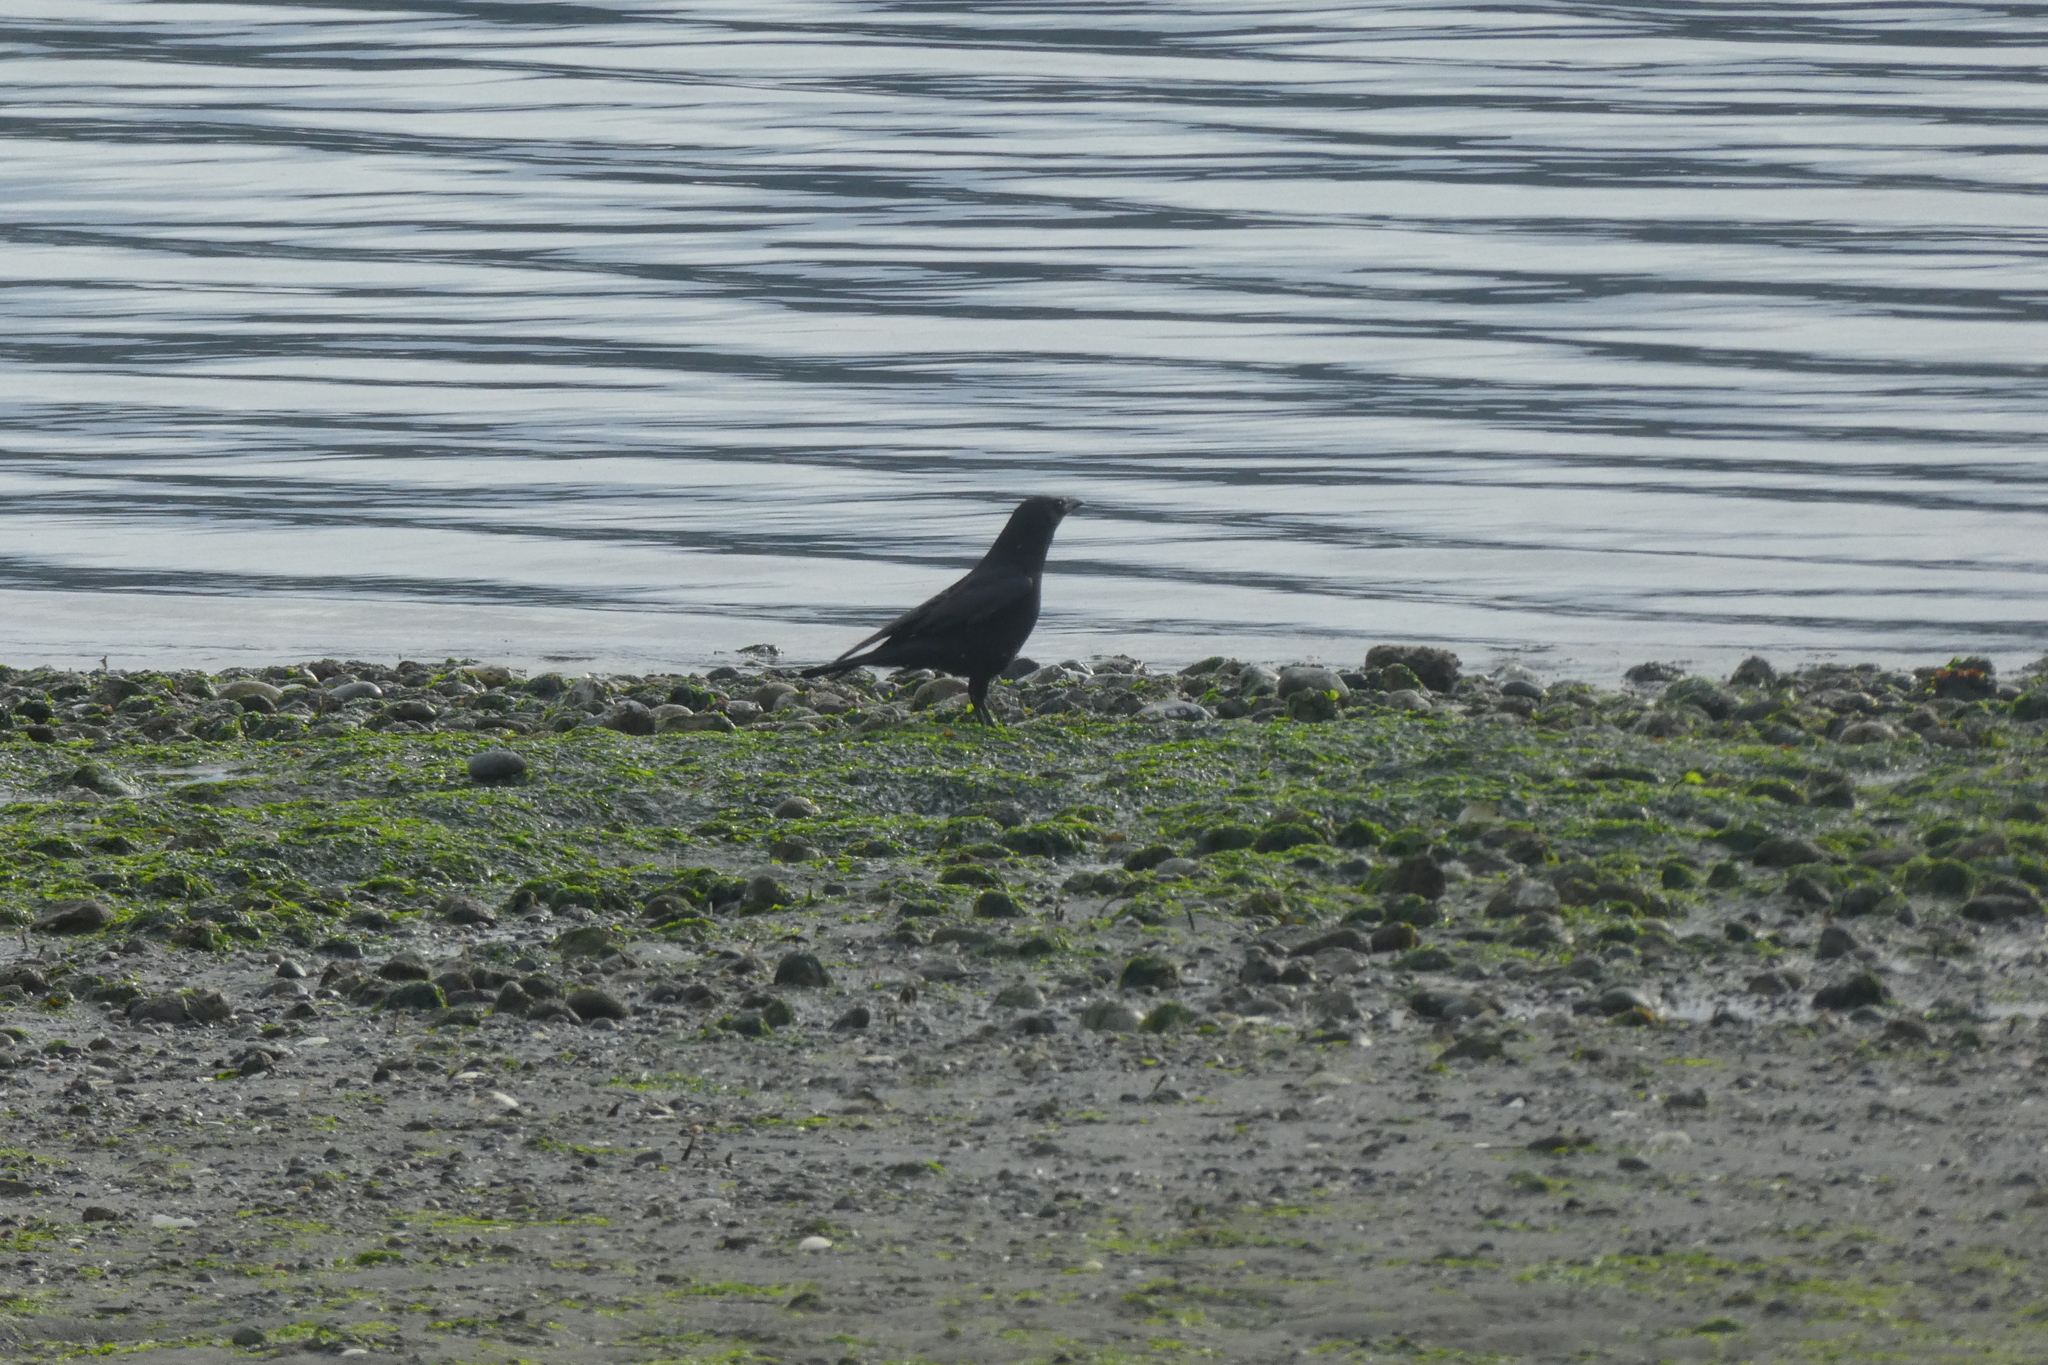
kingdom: Animalia
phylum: Chordata
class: Aves
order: Passeriformes
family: Corvidae
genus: Corvus
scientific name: Corvus brachyrhynchos
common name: American crow
